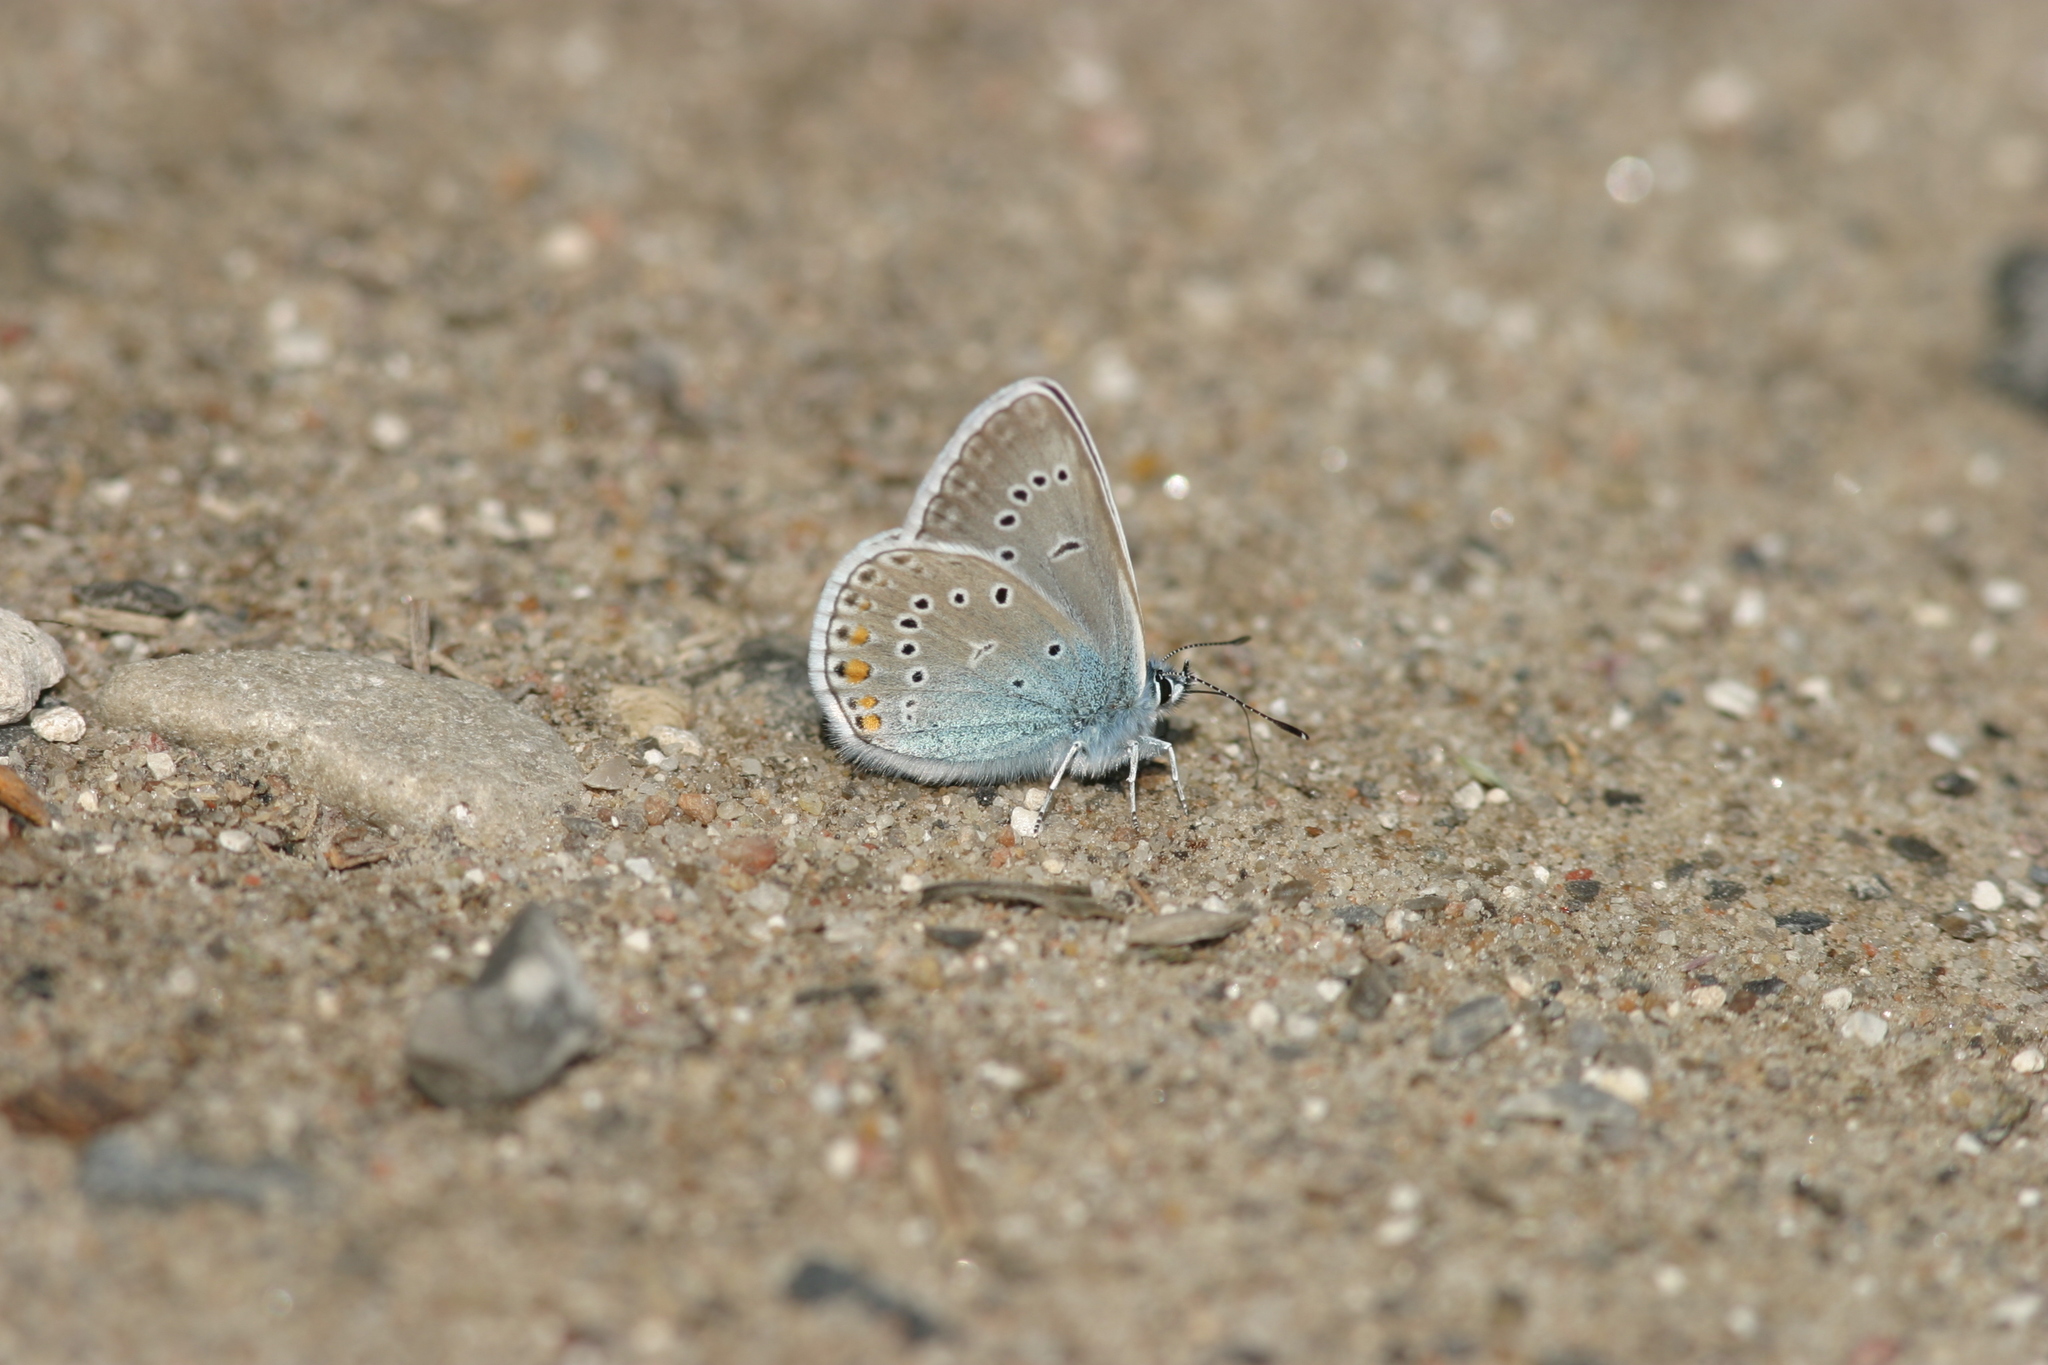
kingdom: Animalia
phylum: Arthropoda
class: Insecta
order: Lepidoptera
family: Lycaenidae
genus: Plebejus
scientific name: Plebejus amanda
